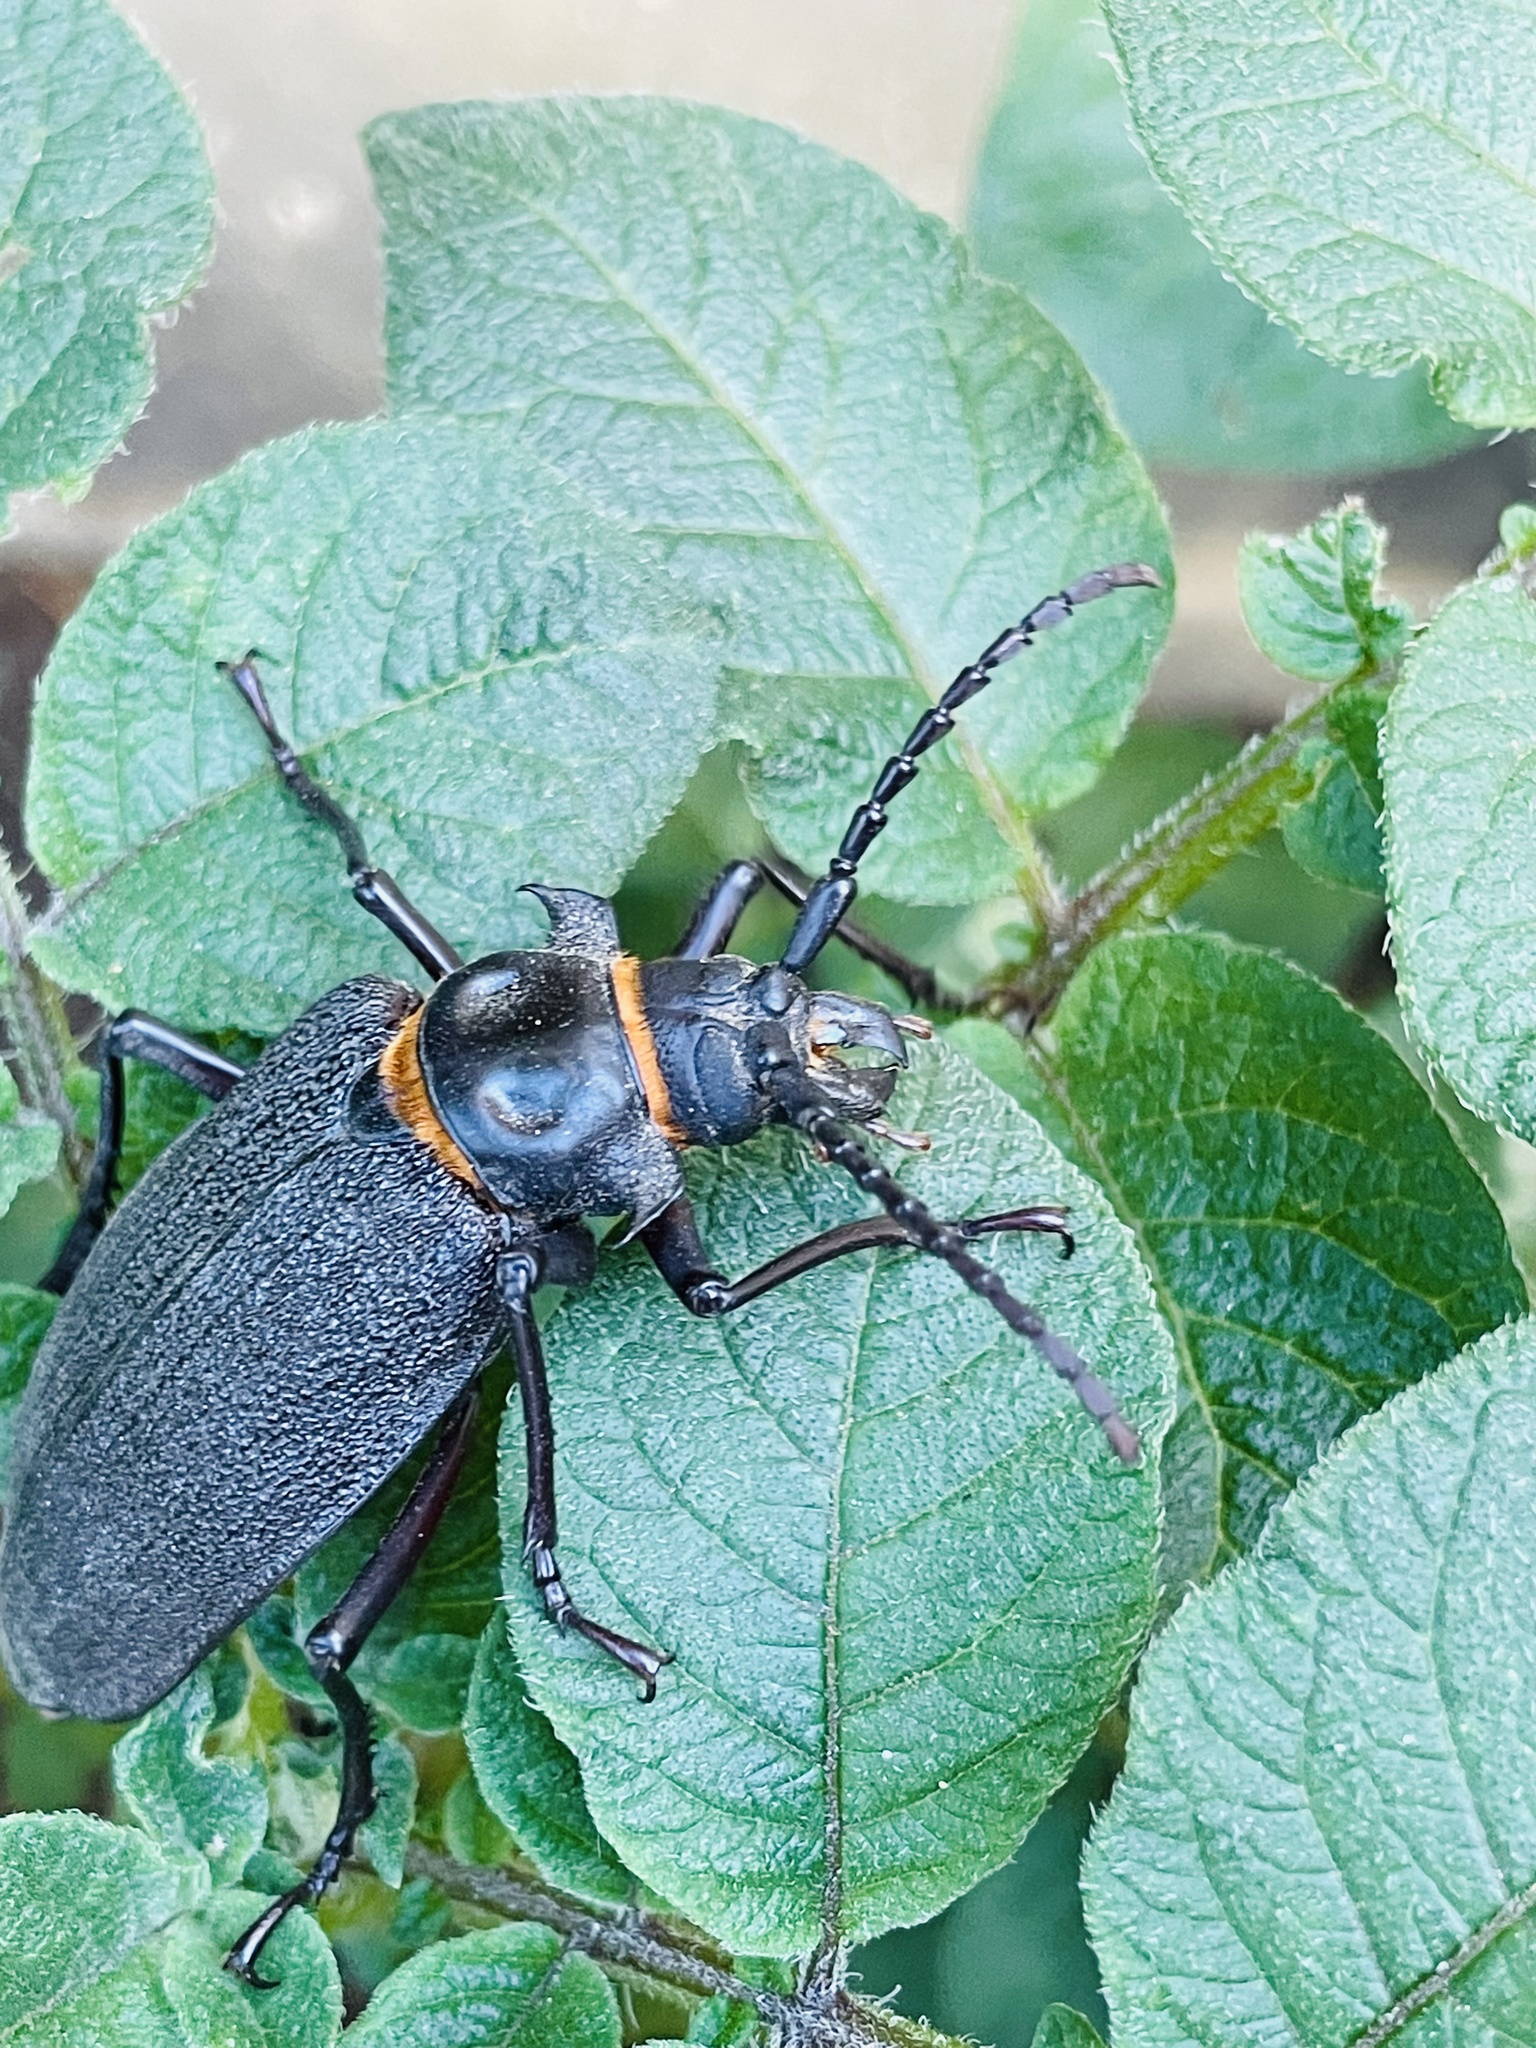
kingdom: Animalia
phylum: Arthropoda
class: Insecta
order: Coleoptera
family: Cerambycidae
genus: Acanthinodera
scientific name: Acanthinodera cumingii
